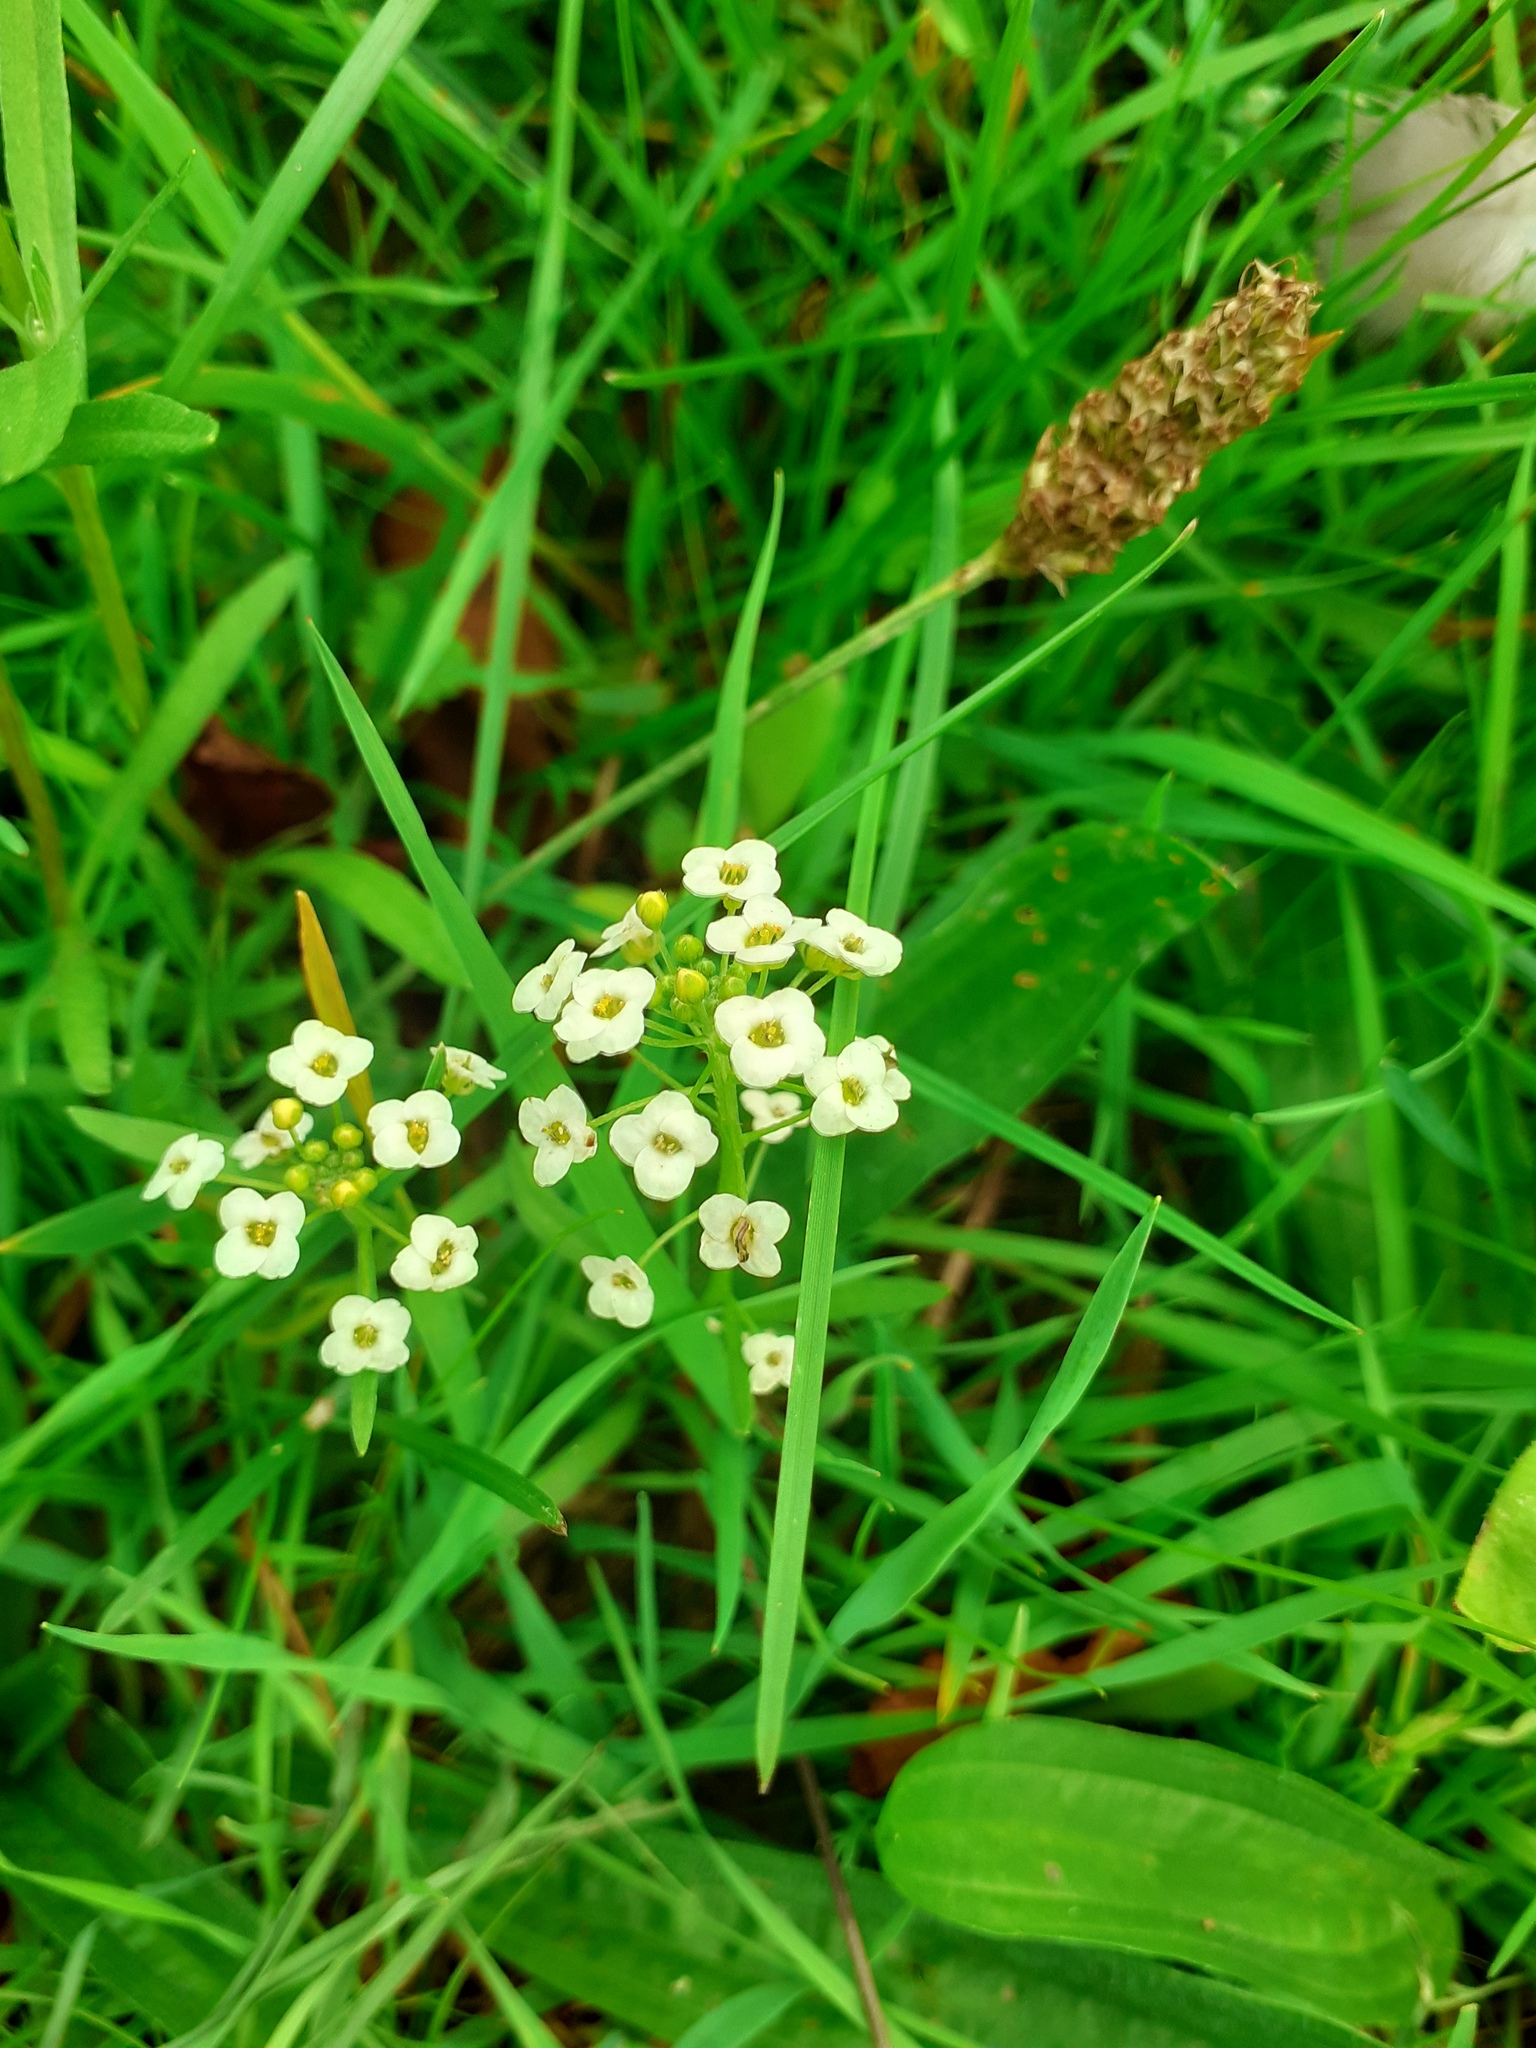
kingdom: Plantae
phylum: Tracheophyta
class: Magnoliopsida
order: Brassicales
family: Brassicaceae
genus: Lobularia
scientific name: Lobularia maritima
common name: Sweet alison
